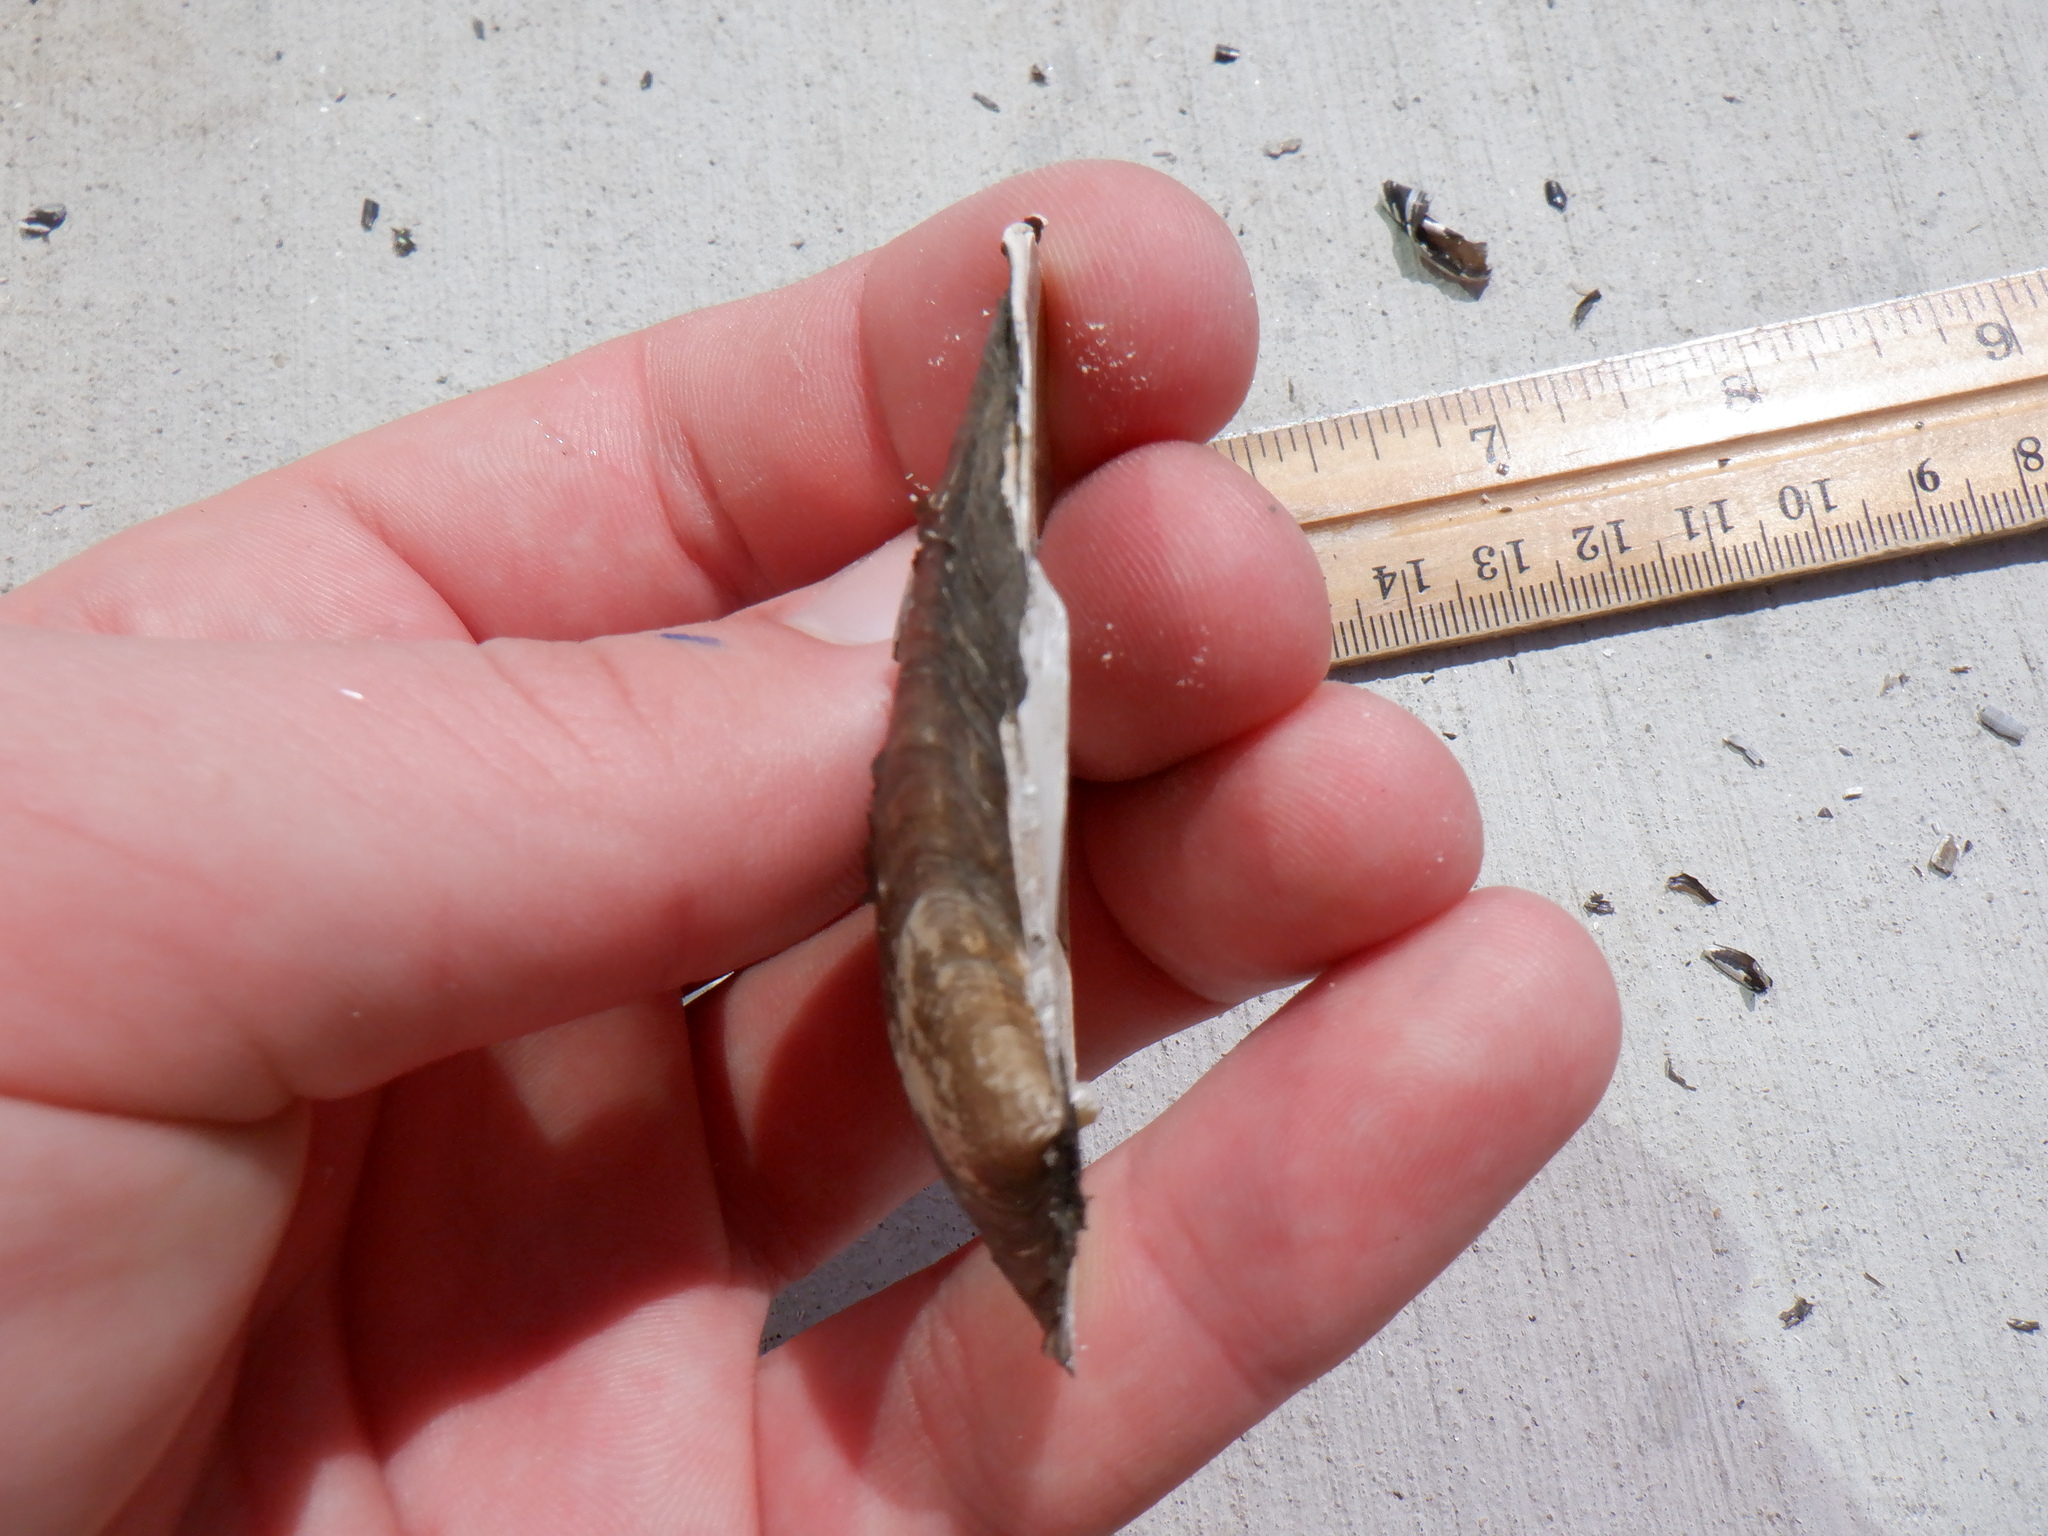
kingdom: Animalia
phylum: Mollusca
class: Bivalvia
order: Unionida
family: Unionidae
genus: Venustaconcha
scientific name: Venustaconcha ellipsiformis
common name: Ellipse
